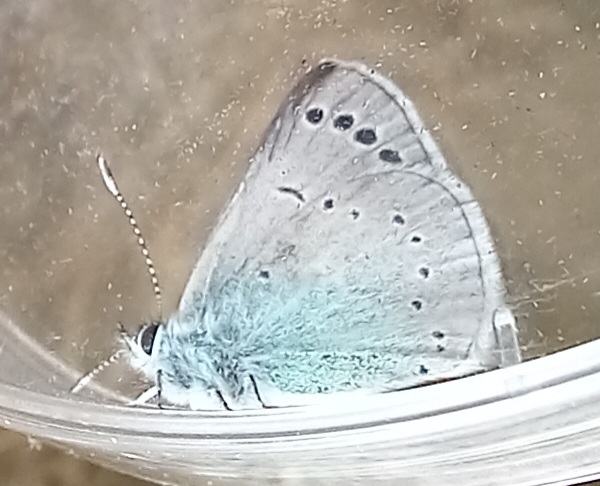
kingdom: Animalia
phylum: Arthropoda
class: Insecta
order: Lepidoptera
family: Lycaenidae
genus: Glaucopsyche
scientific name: Glaucopsyche alexis
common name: Green-underside blue
